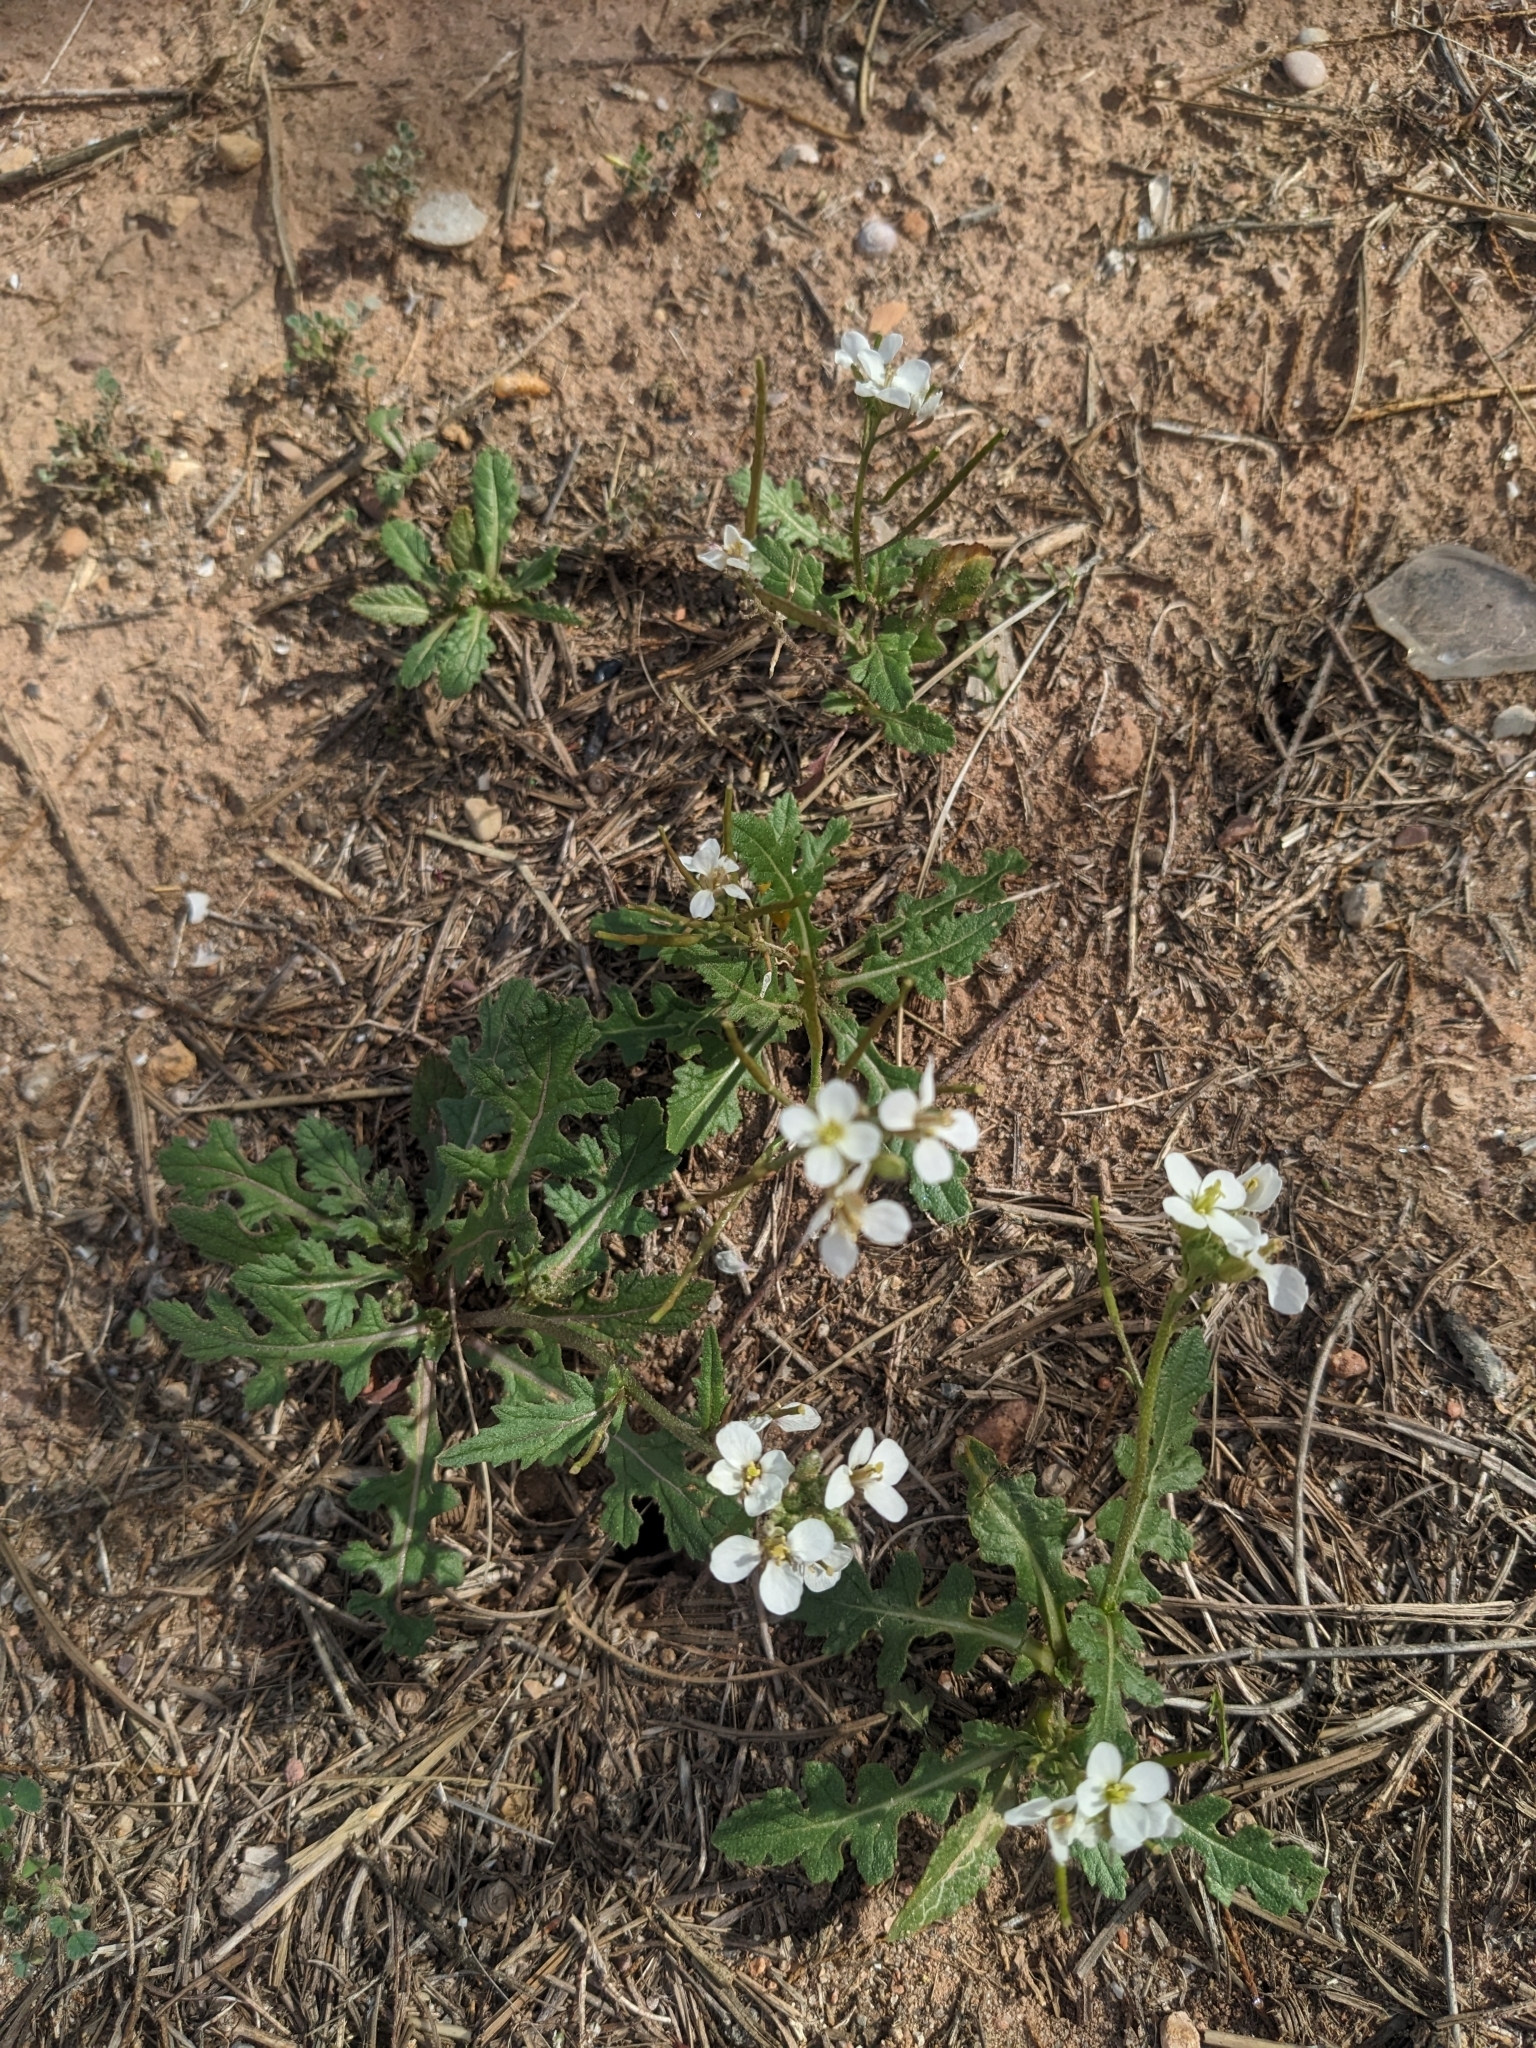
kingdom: Plantae
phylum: Tracheophyta
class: Magnoliopsida
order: Brassicales
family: Brassicaceae
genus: Diplotaxis
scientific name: Diplotaxis erucoides
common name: White rocket
